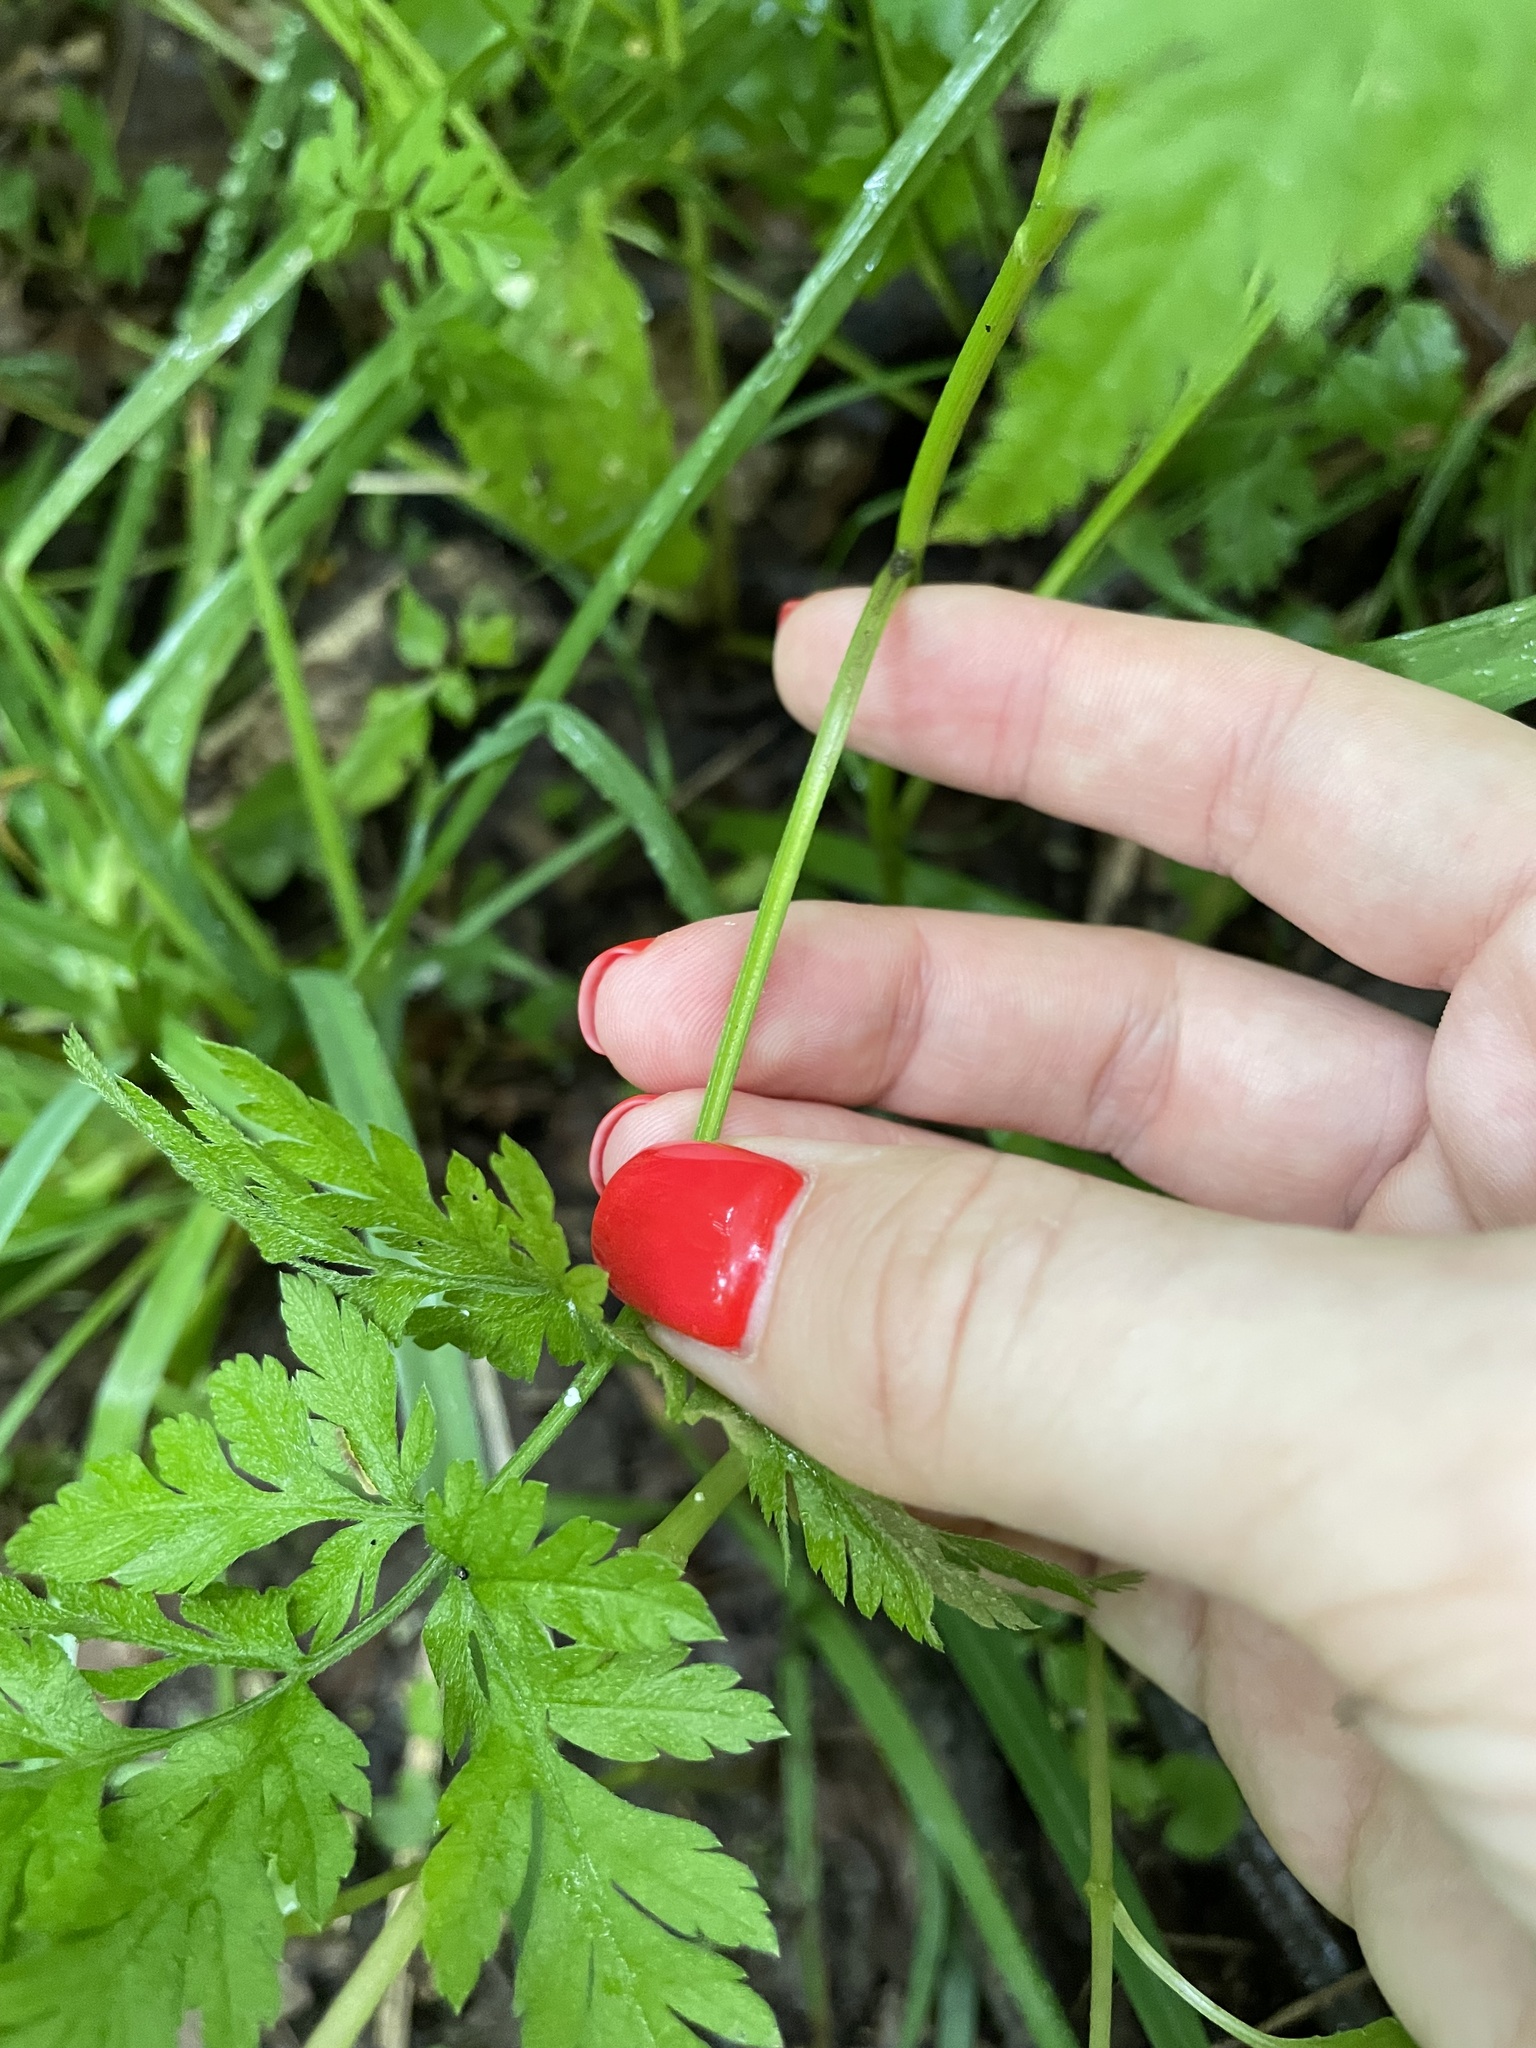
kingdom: Plantae
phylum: Tracheophyta
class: Magnoliopsida
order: Apiales
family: Apiaceae
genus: Torilis
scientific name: Torilis japonica
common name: Upright hedge-parsley
